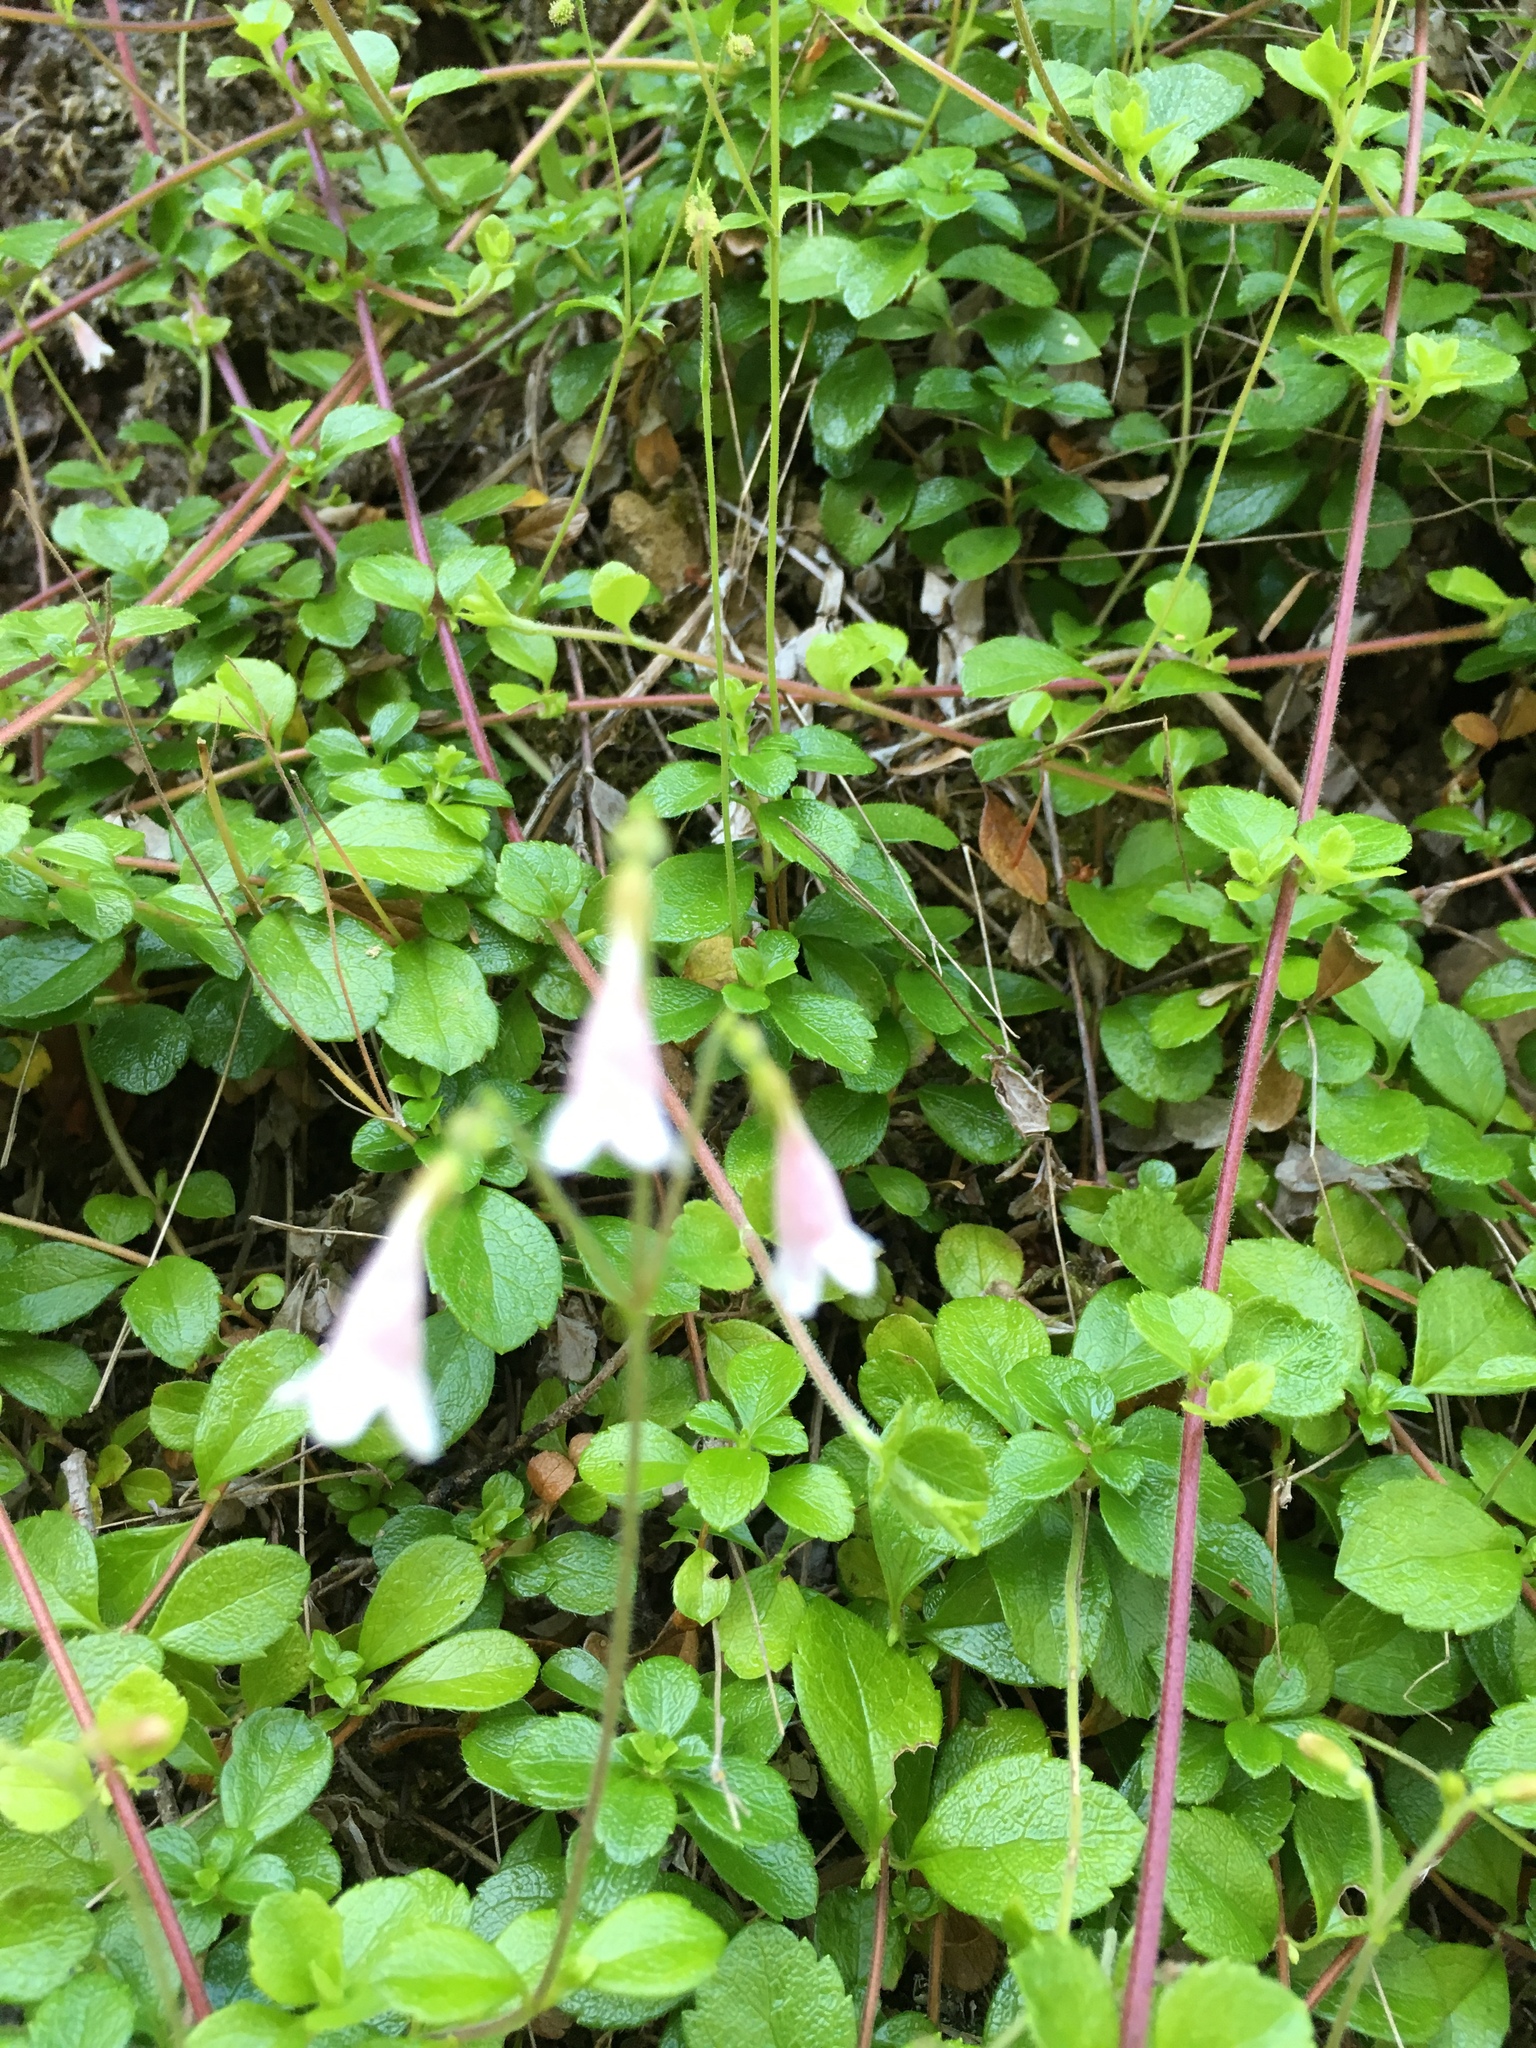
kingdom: Plantae
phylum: Tracheophyta
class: Magnoliopsida
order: Dipsacales
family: Caprifoliaceae
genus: Linnaea
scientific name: Linnaea borealis
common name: Twinflower
